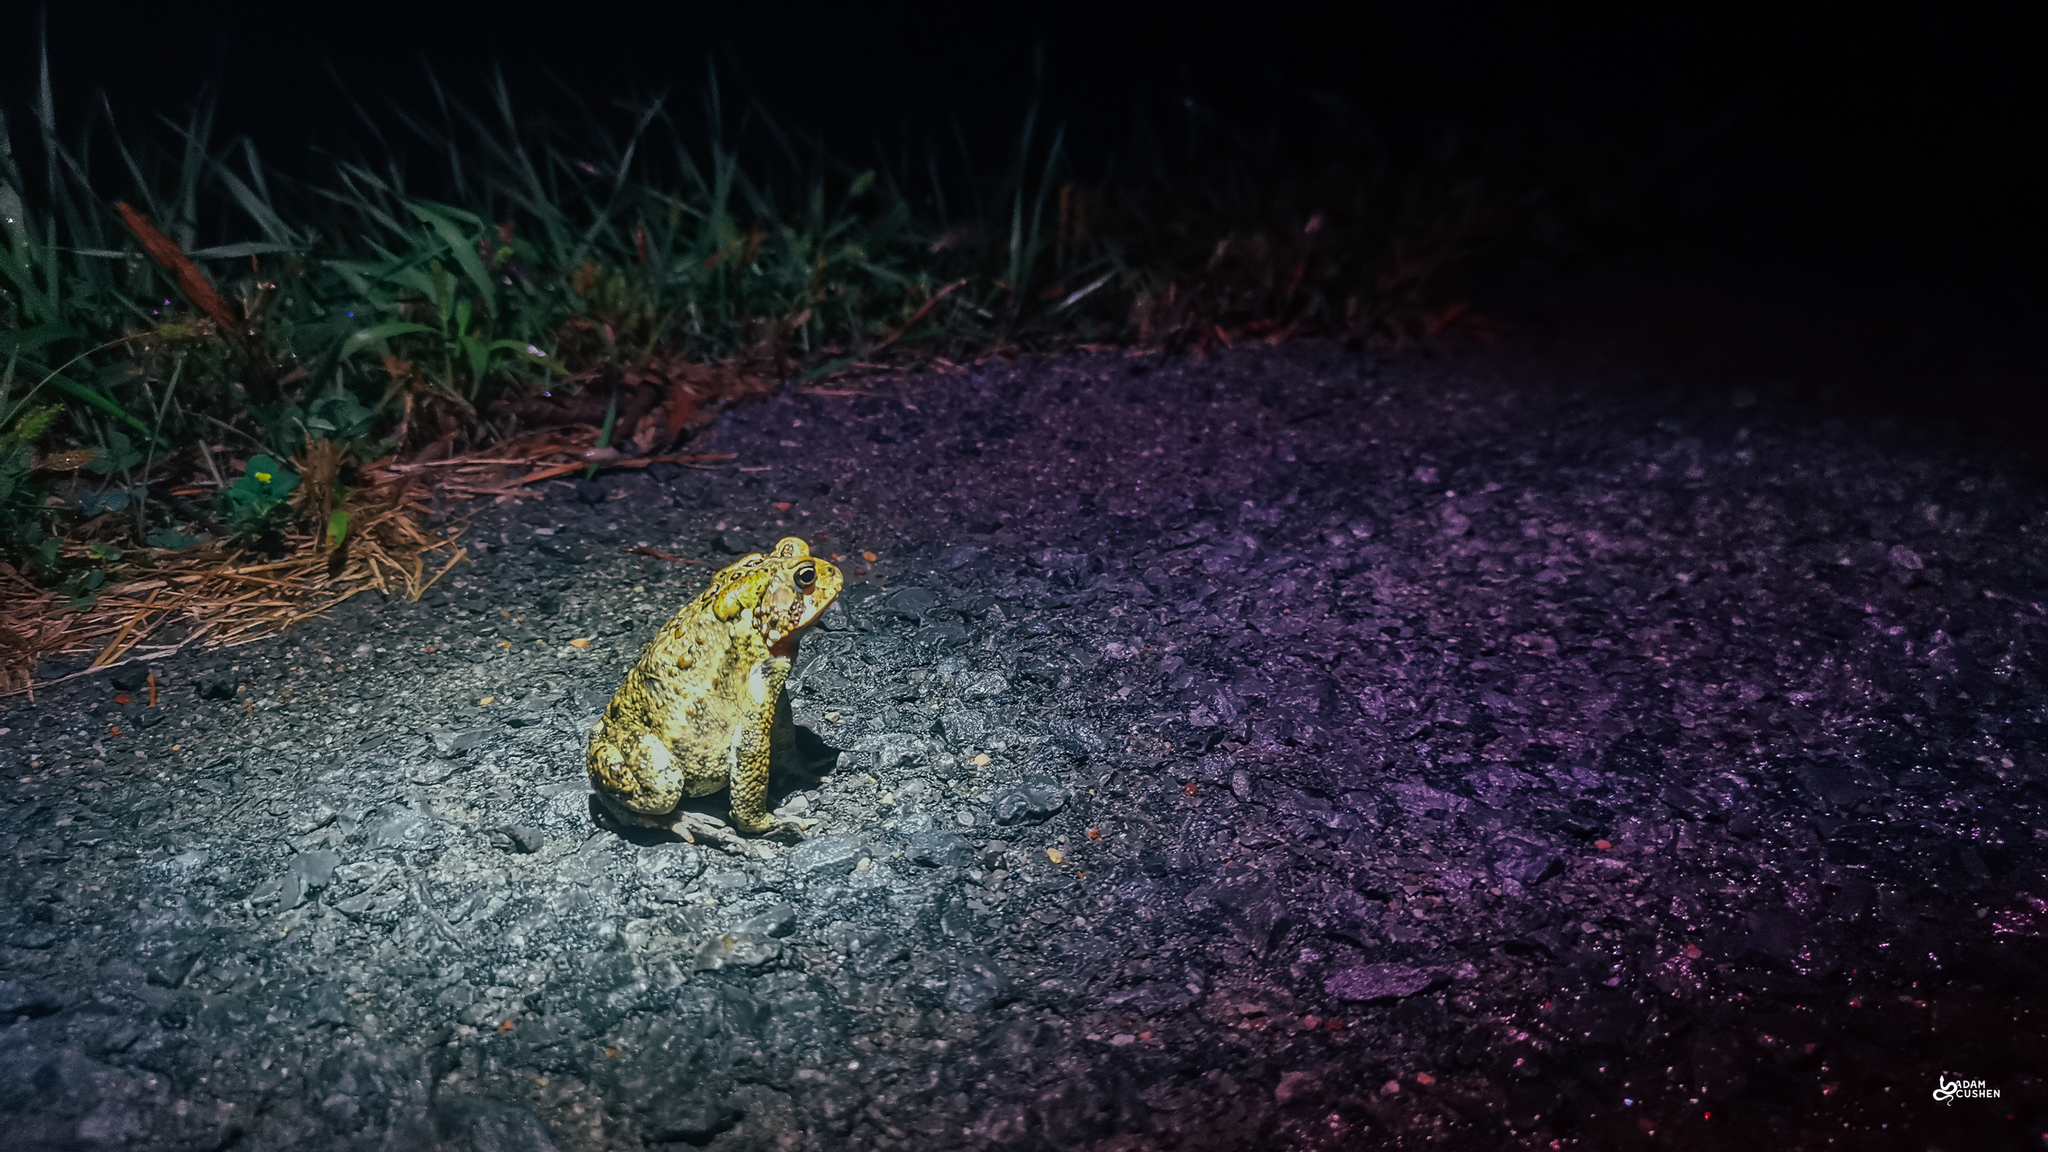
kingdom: Animalia
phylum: Chordata
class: Amphibia
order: Anura
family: Bufonidae
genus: Anaxyrus
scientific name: Anaxyrus americanus
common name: American toad
